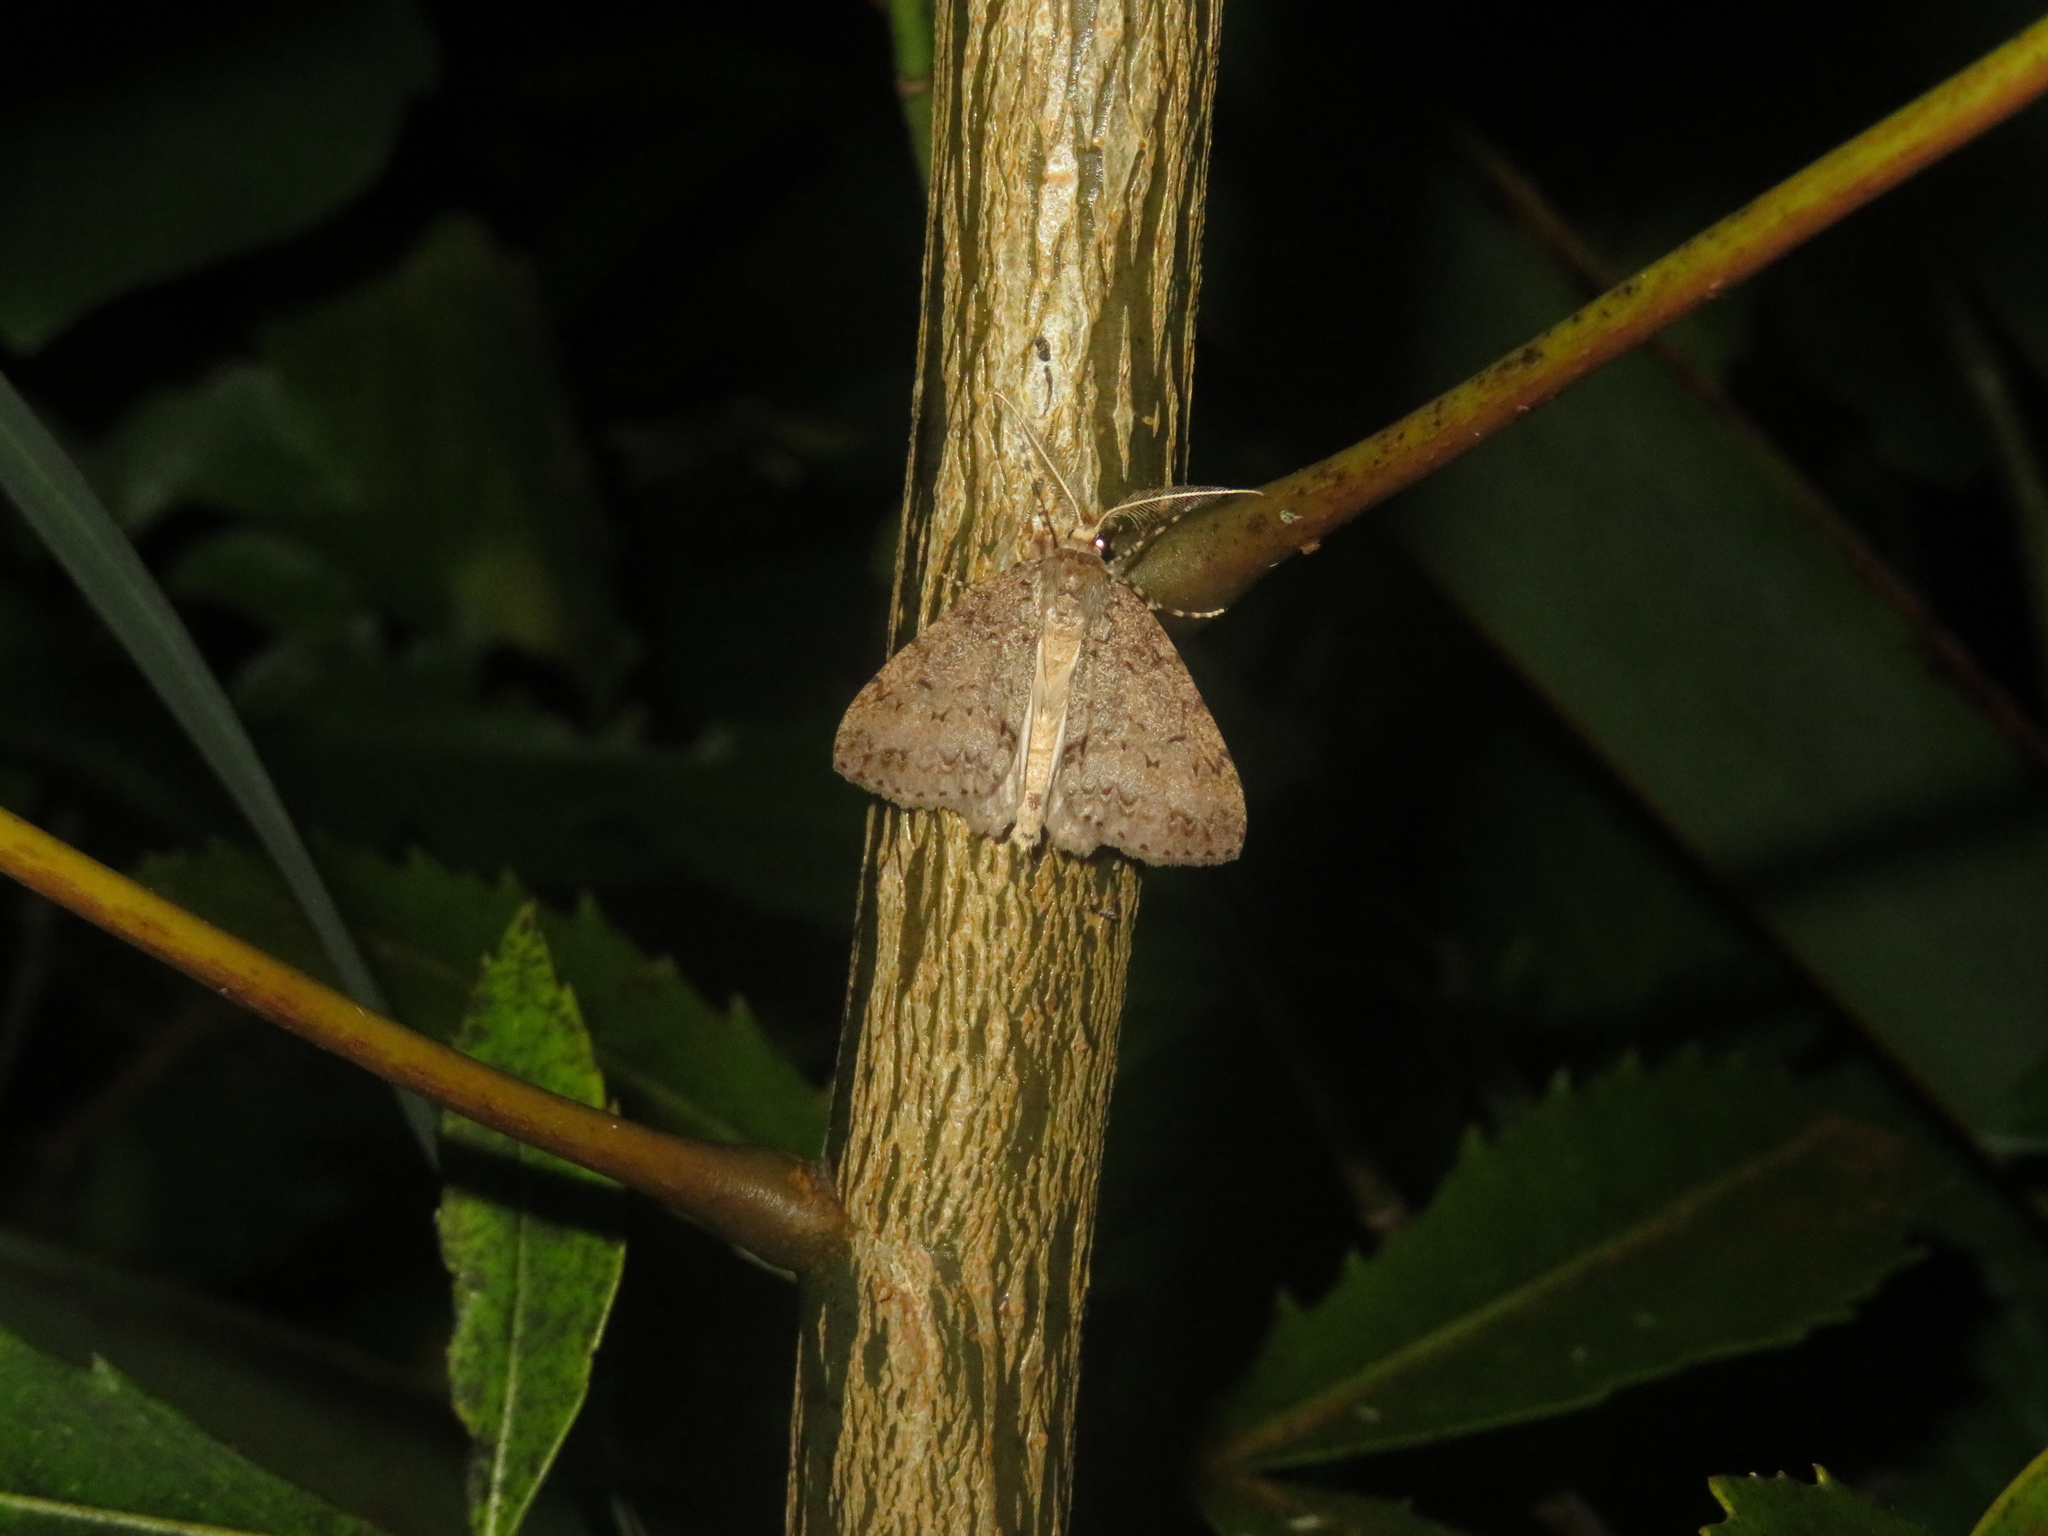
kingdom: Animalia
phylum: Arthropoda
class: Insecta
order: Lepidoptera
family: Geometridae
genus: Pseudocoremia
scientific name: Pseudocoremia fenerata
